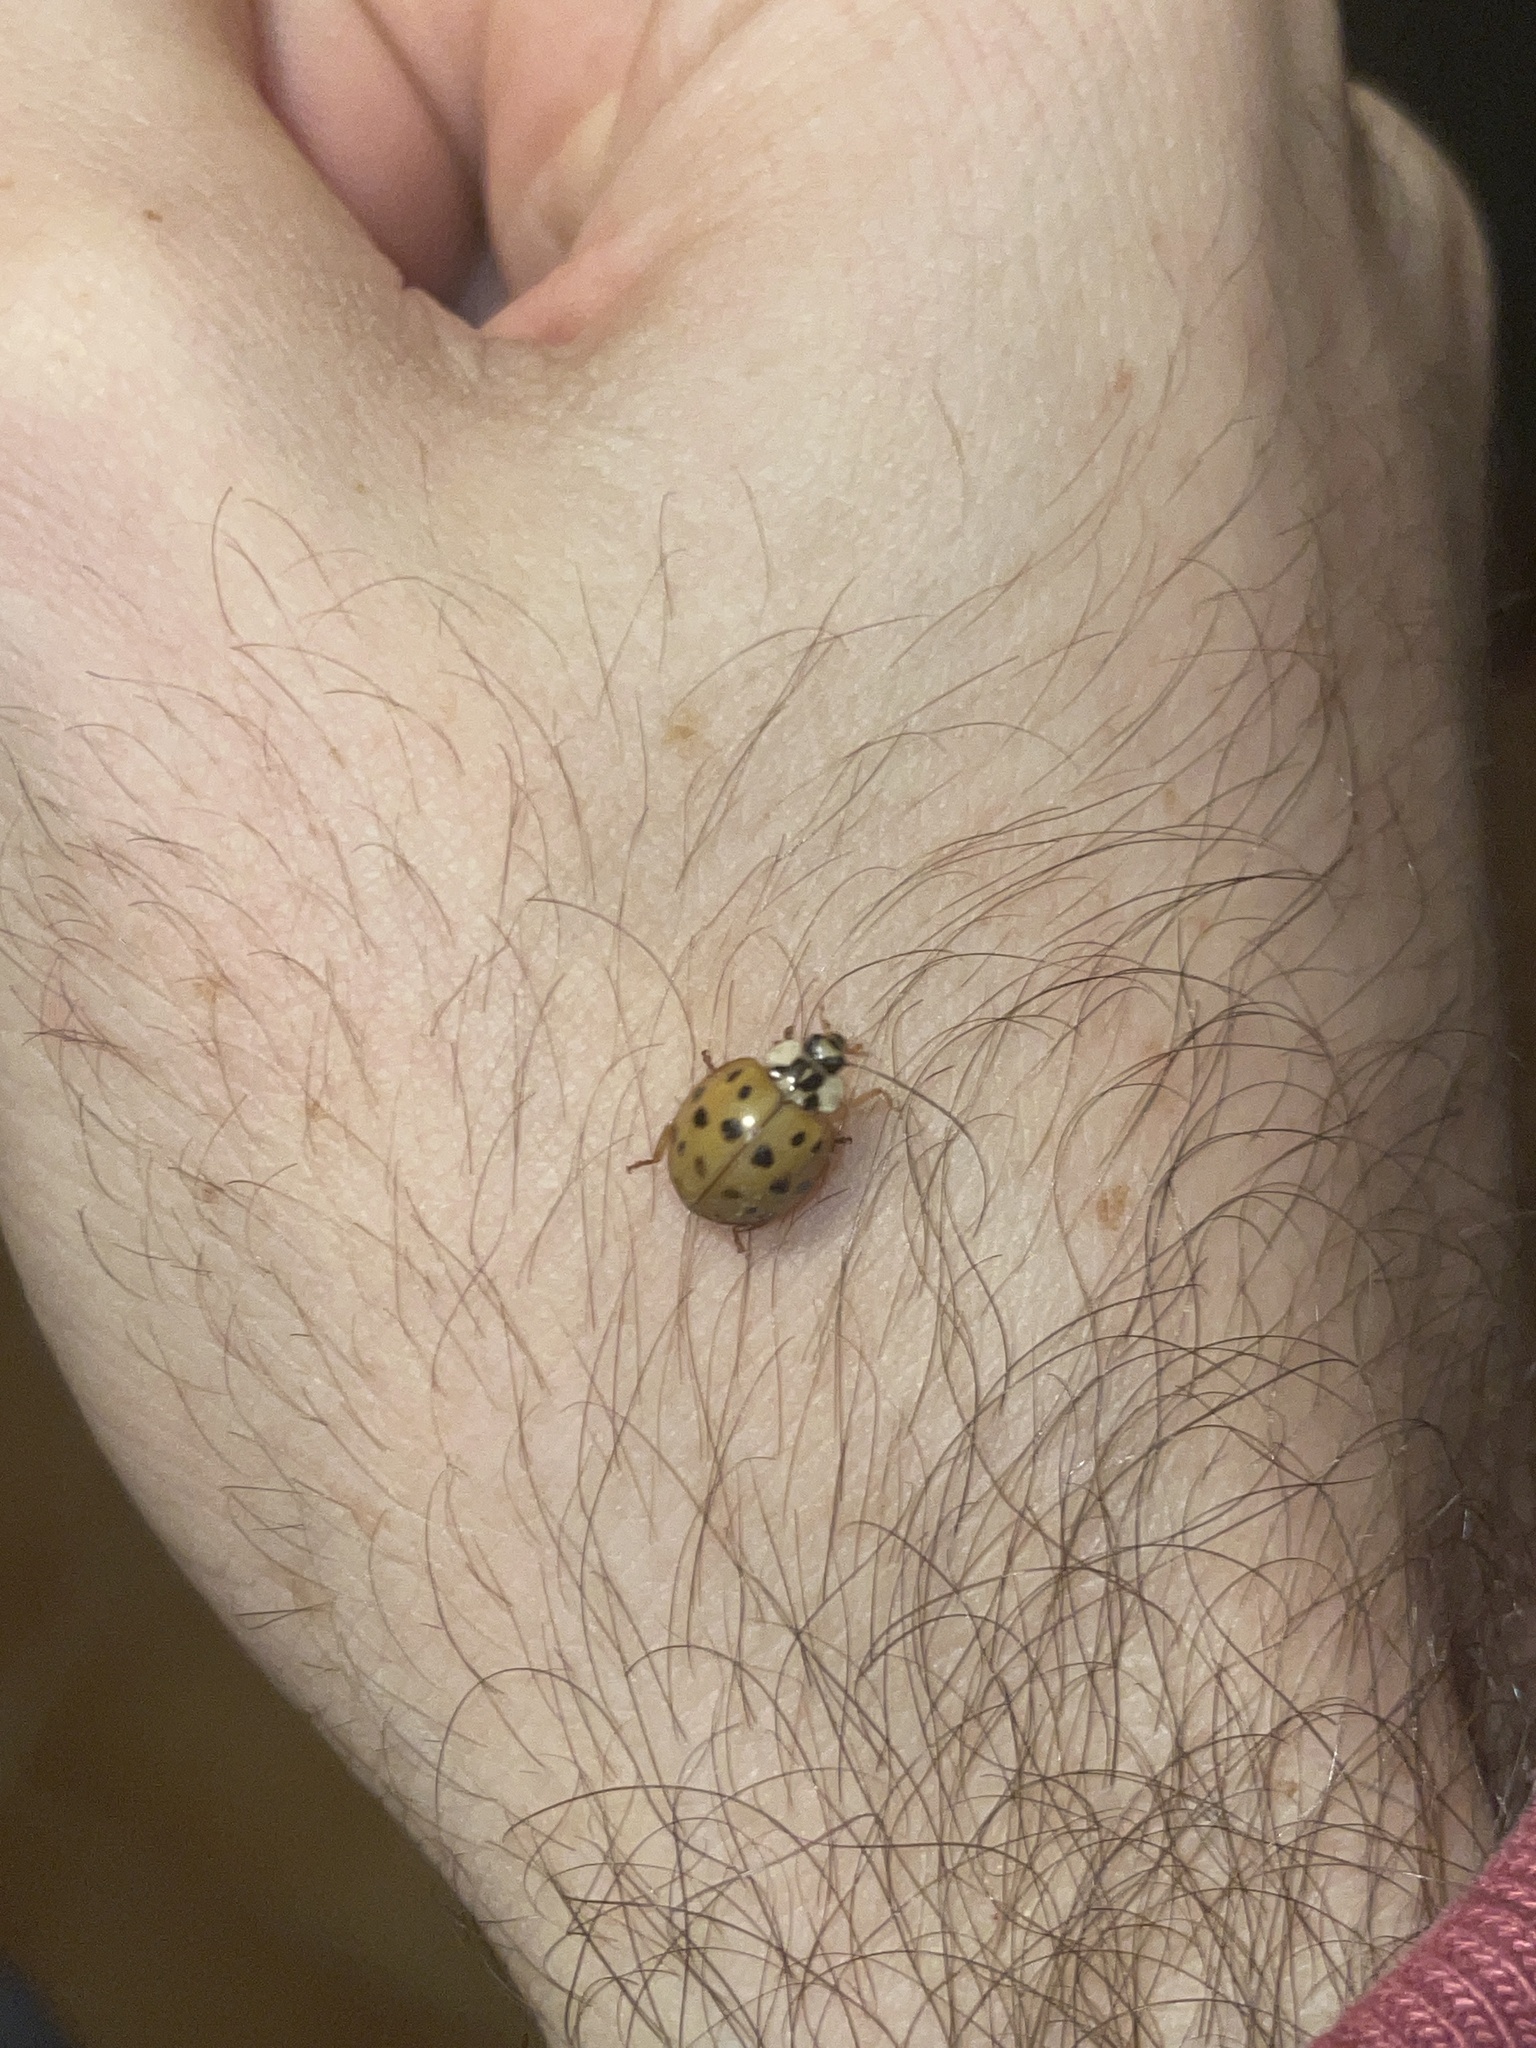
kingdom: Animalia
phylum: Arthropoda
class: Insecta
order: Coleoptera
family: Coccinellidae
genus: Harmonia
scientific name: Harmonia axyridis
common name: Harlequin ladybird
